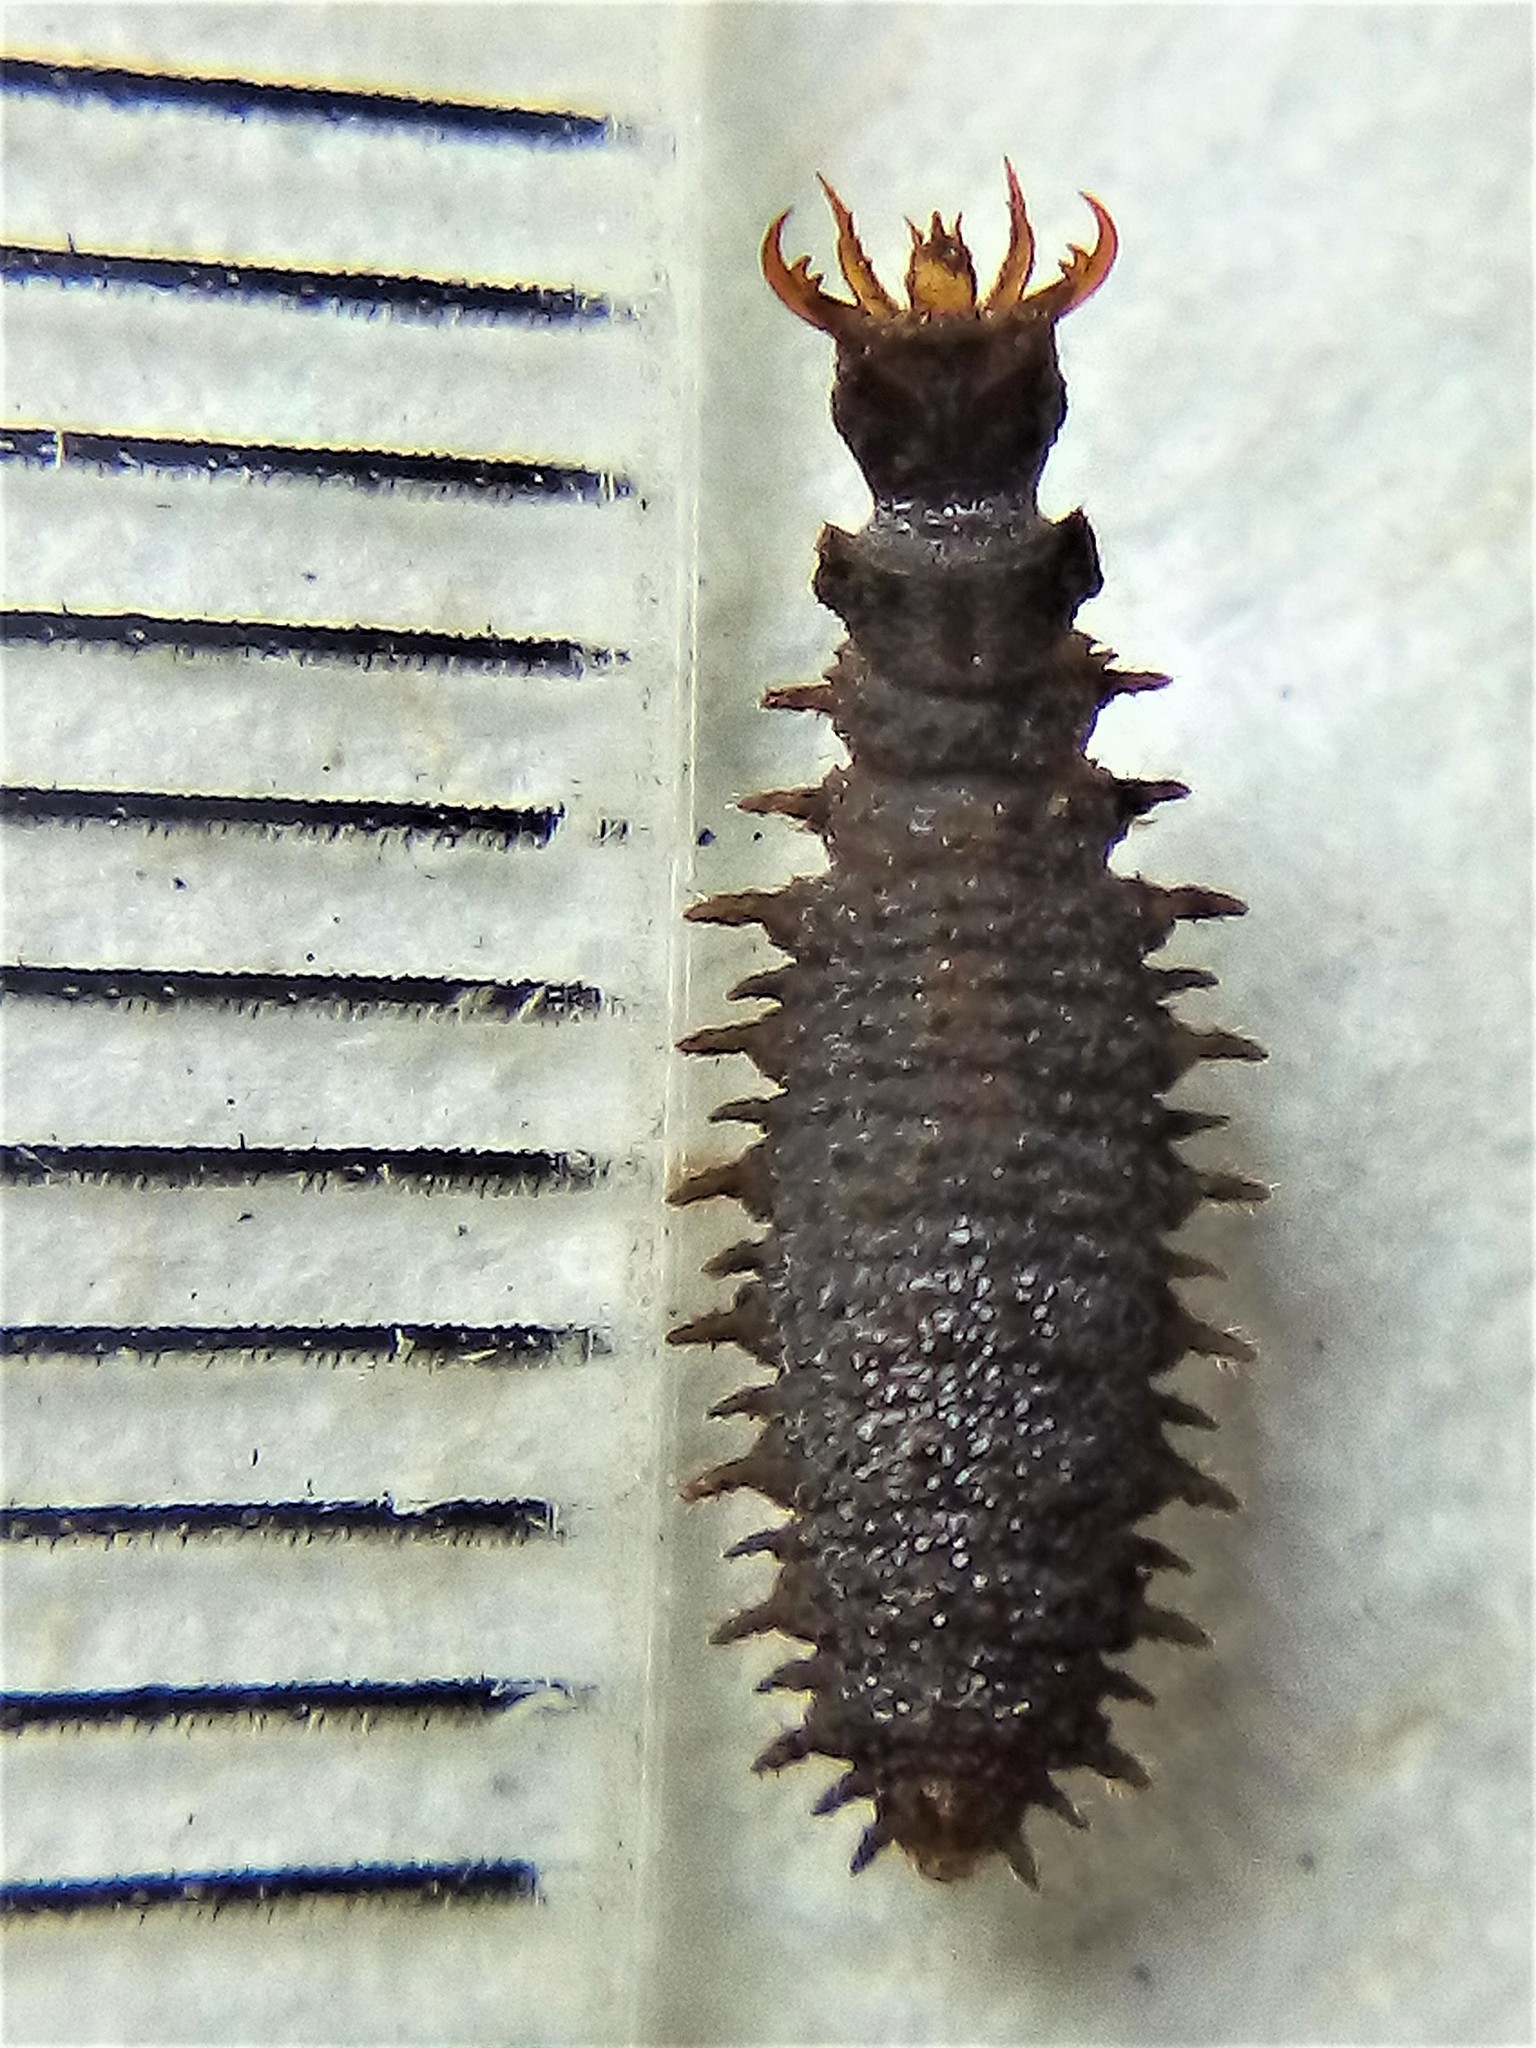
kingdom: Animalia
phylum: Arthropoda
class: Insecta
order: Coleoptera
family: Hydrophilidae
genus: Enigmahydrus
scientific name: Enigmahydrus larvalis
